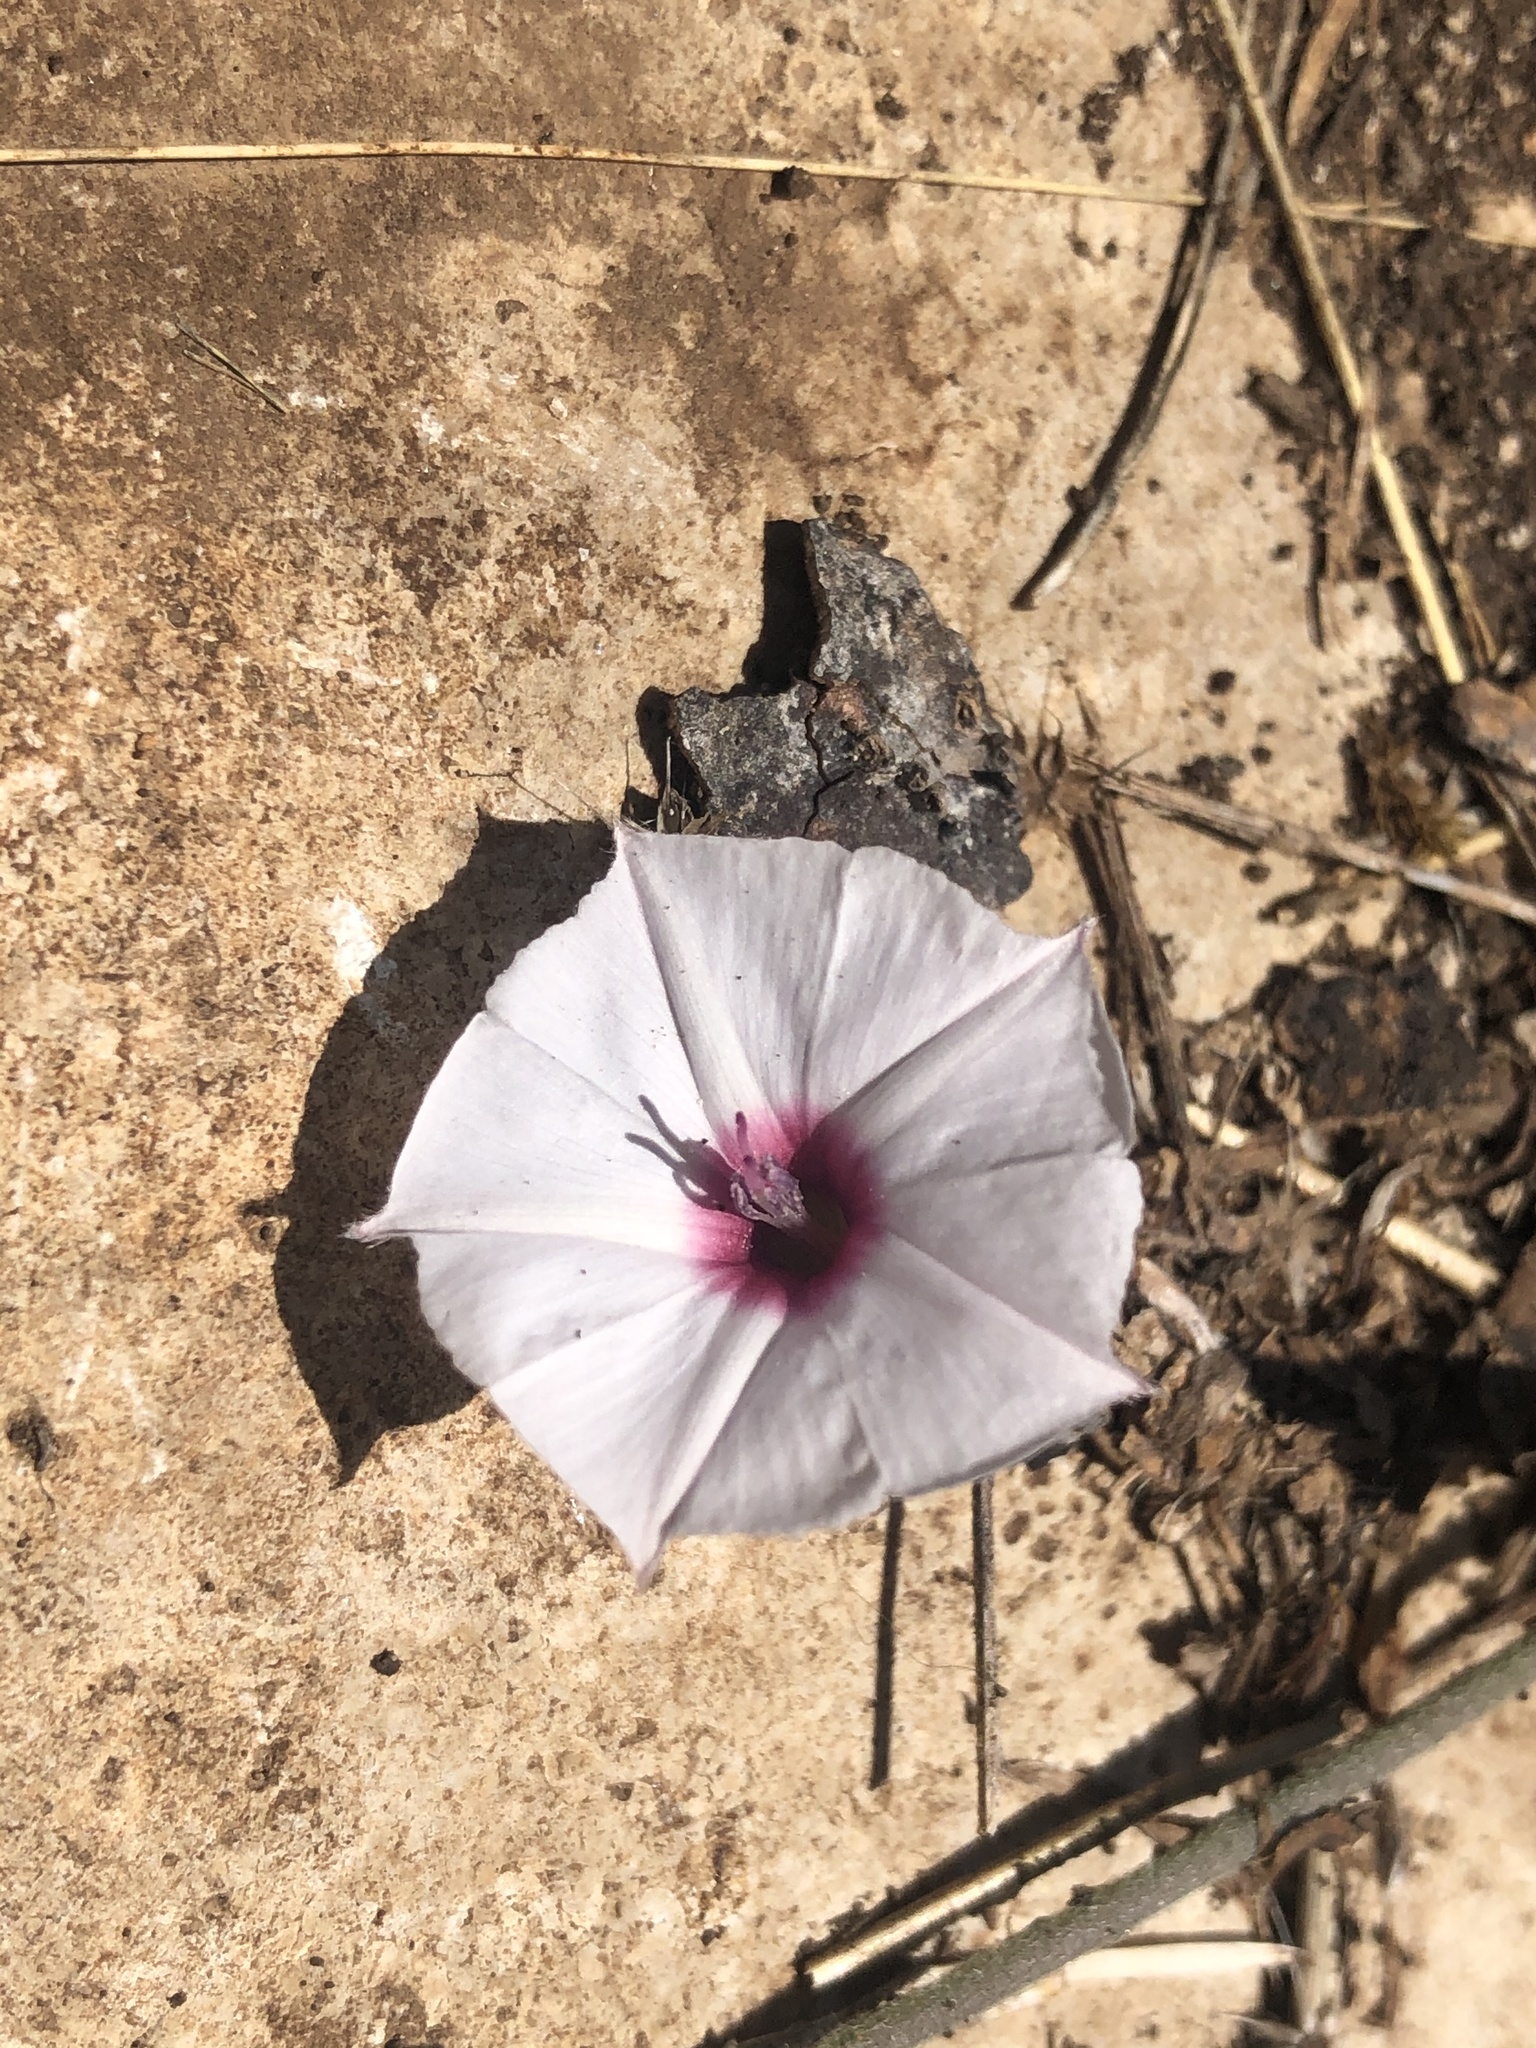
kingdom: Plantae
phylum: Tracheophyta
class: Magnoliopsida
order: Solanales
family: Convolvulaceae
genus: Convolvulus
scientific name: Convolvulus equitans
